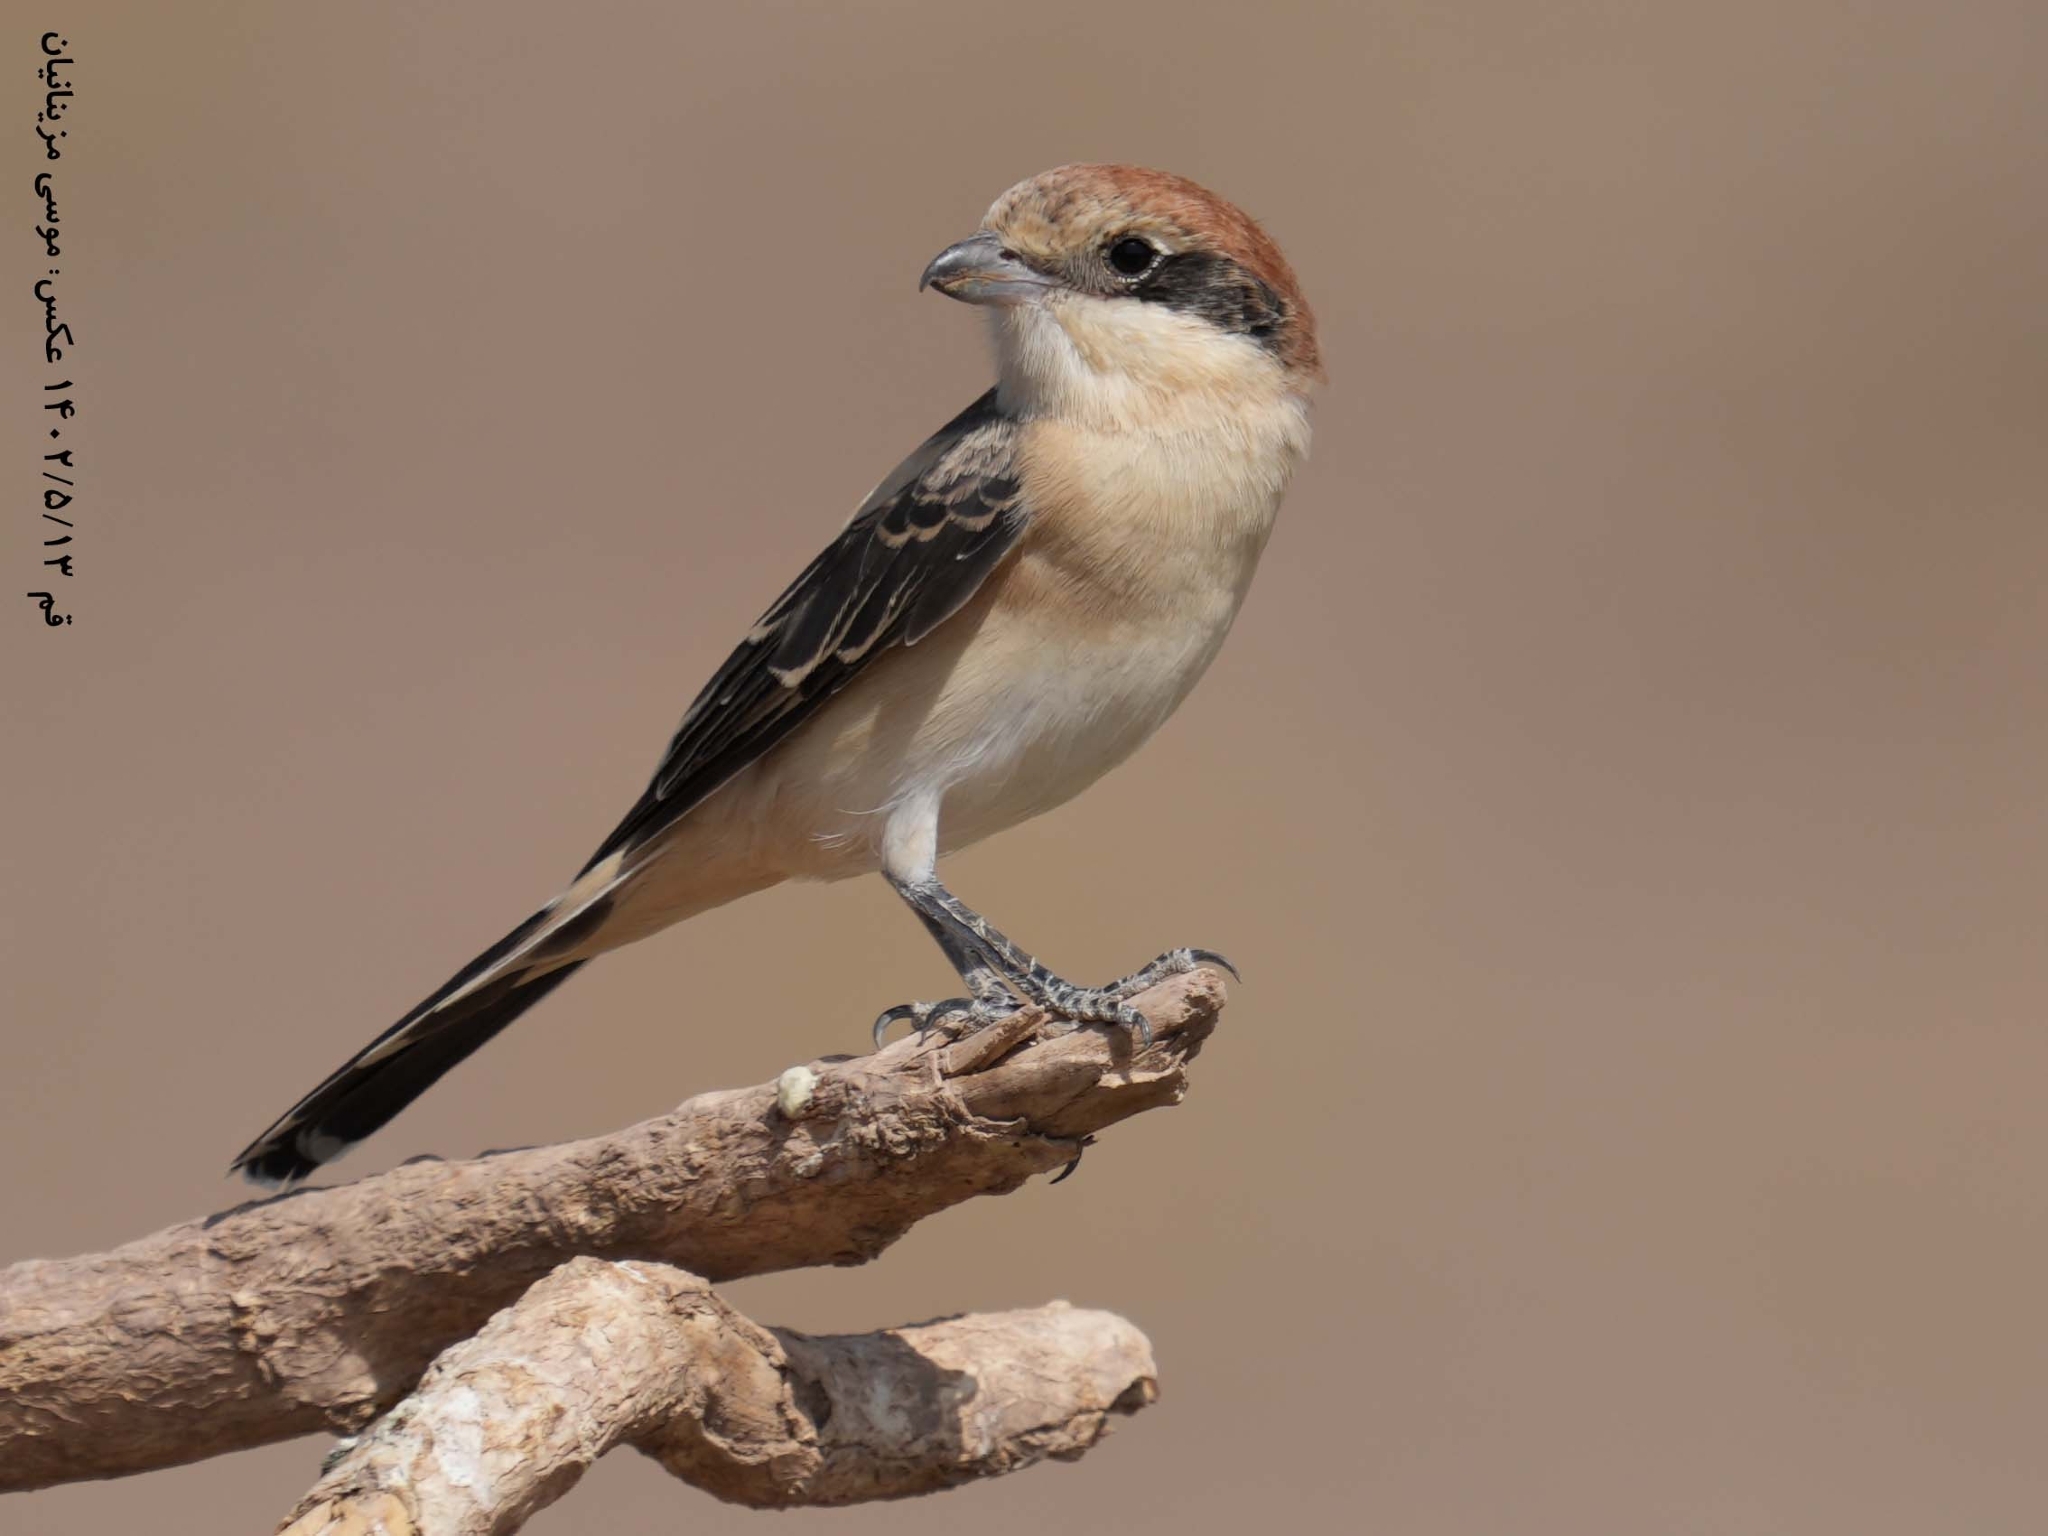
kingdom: Animalia
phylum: Chordata
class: Aves
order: Passeriformes
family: Laniidae
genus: Lanius
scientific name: Lanius senator
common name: Woodchat shrike
